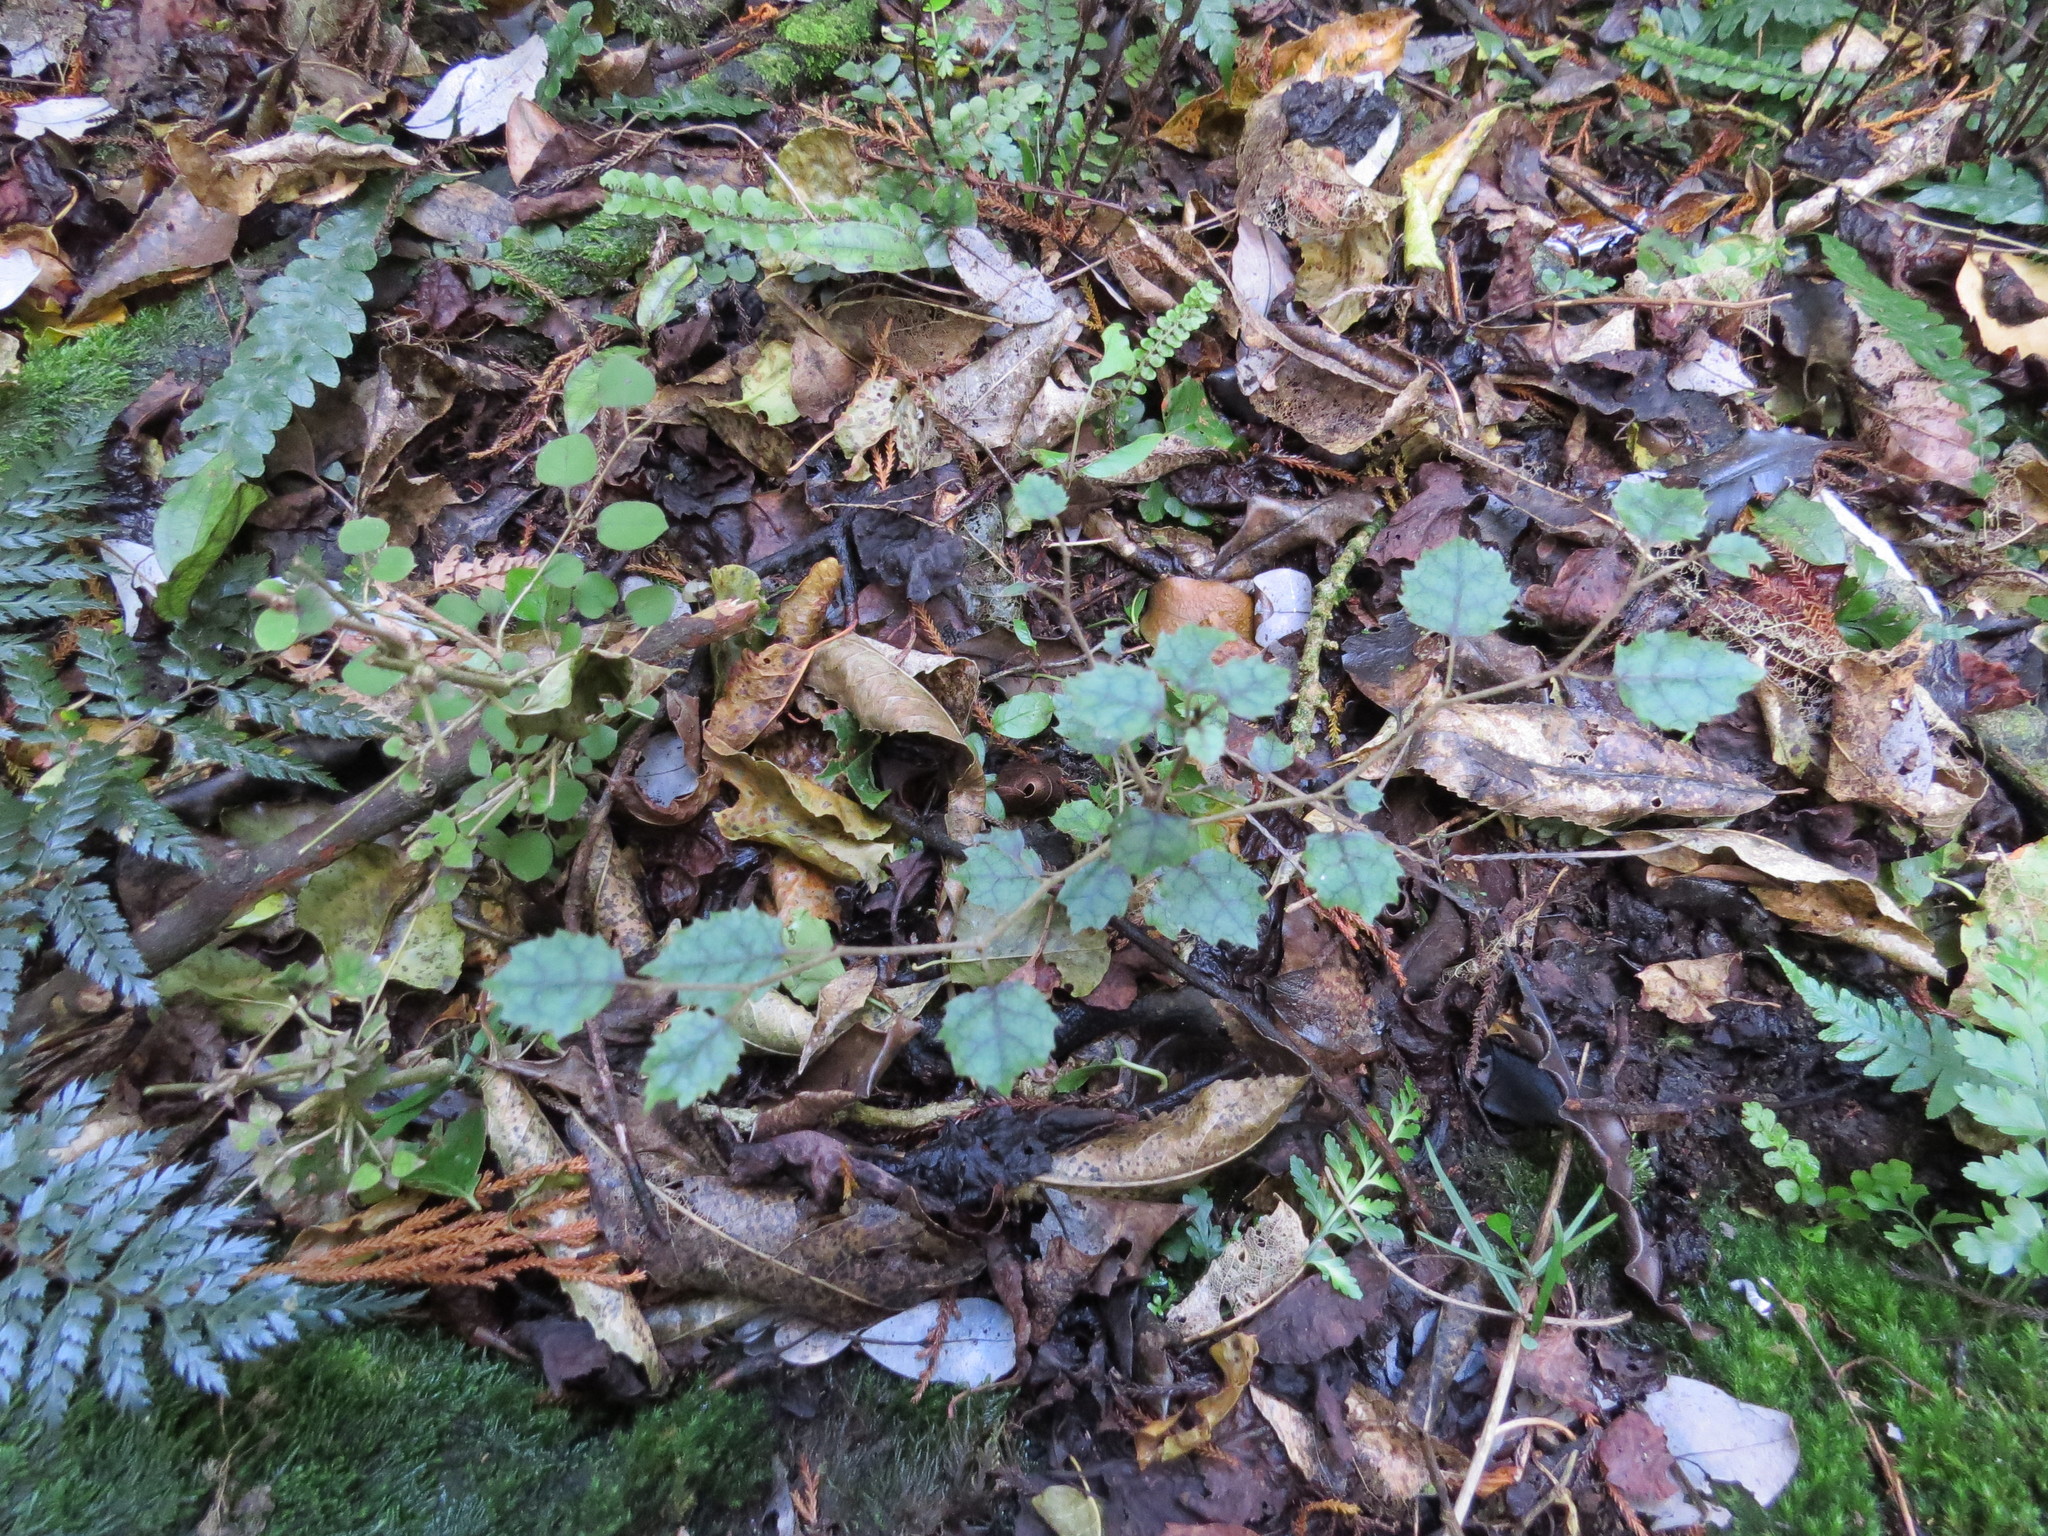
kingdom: Plantae
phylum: Tracheophyta
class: Magnoliopsida
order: Asterales
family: Rousseaceae
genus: Carpodetus
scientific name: Carpodetus serratus
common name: White mapau
